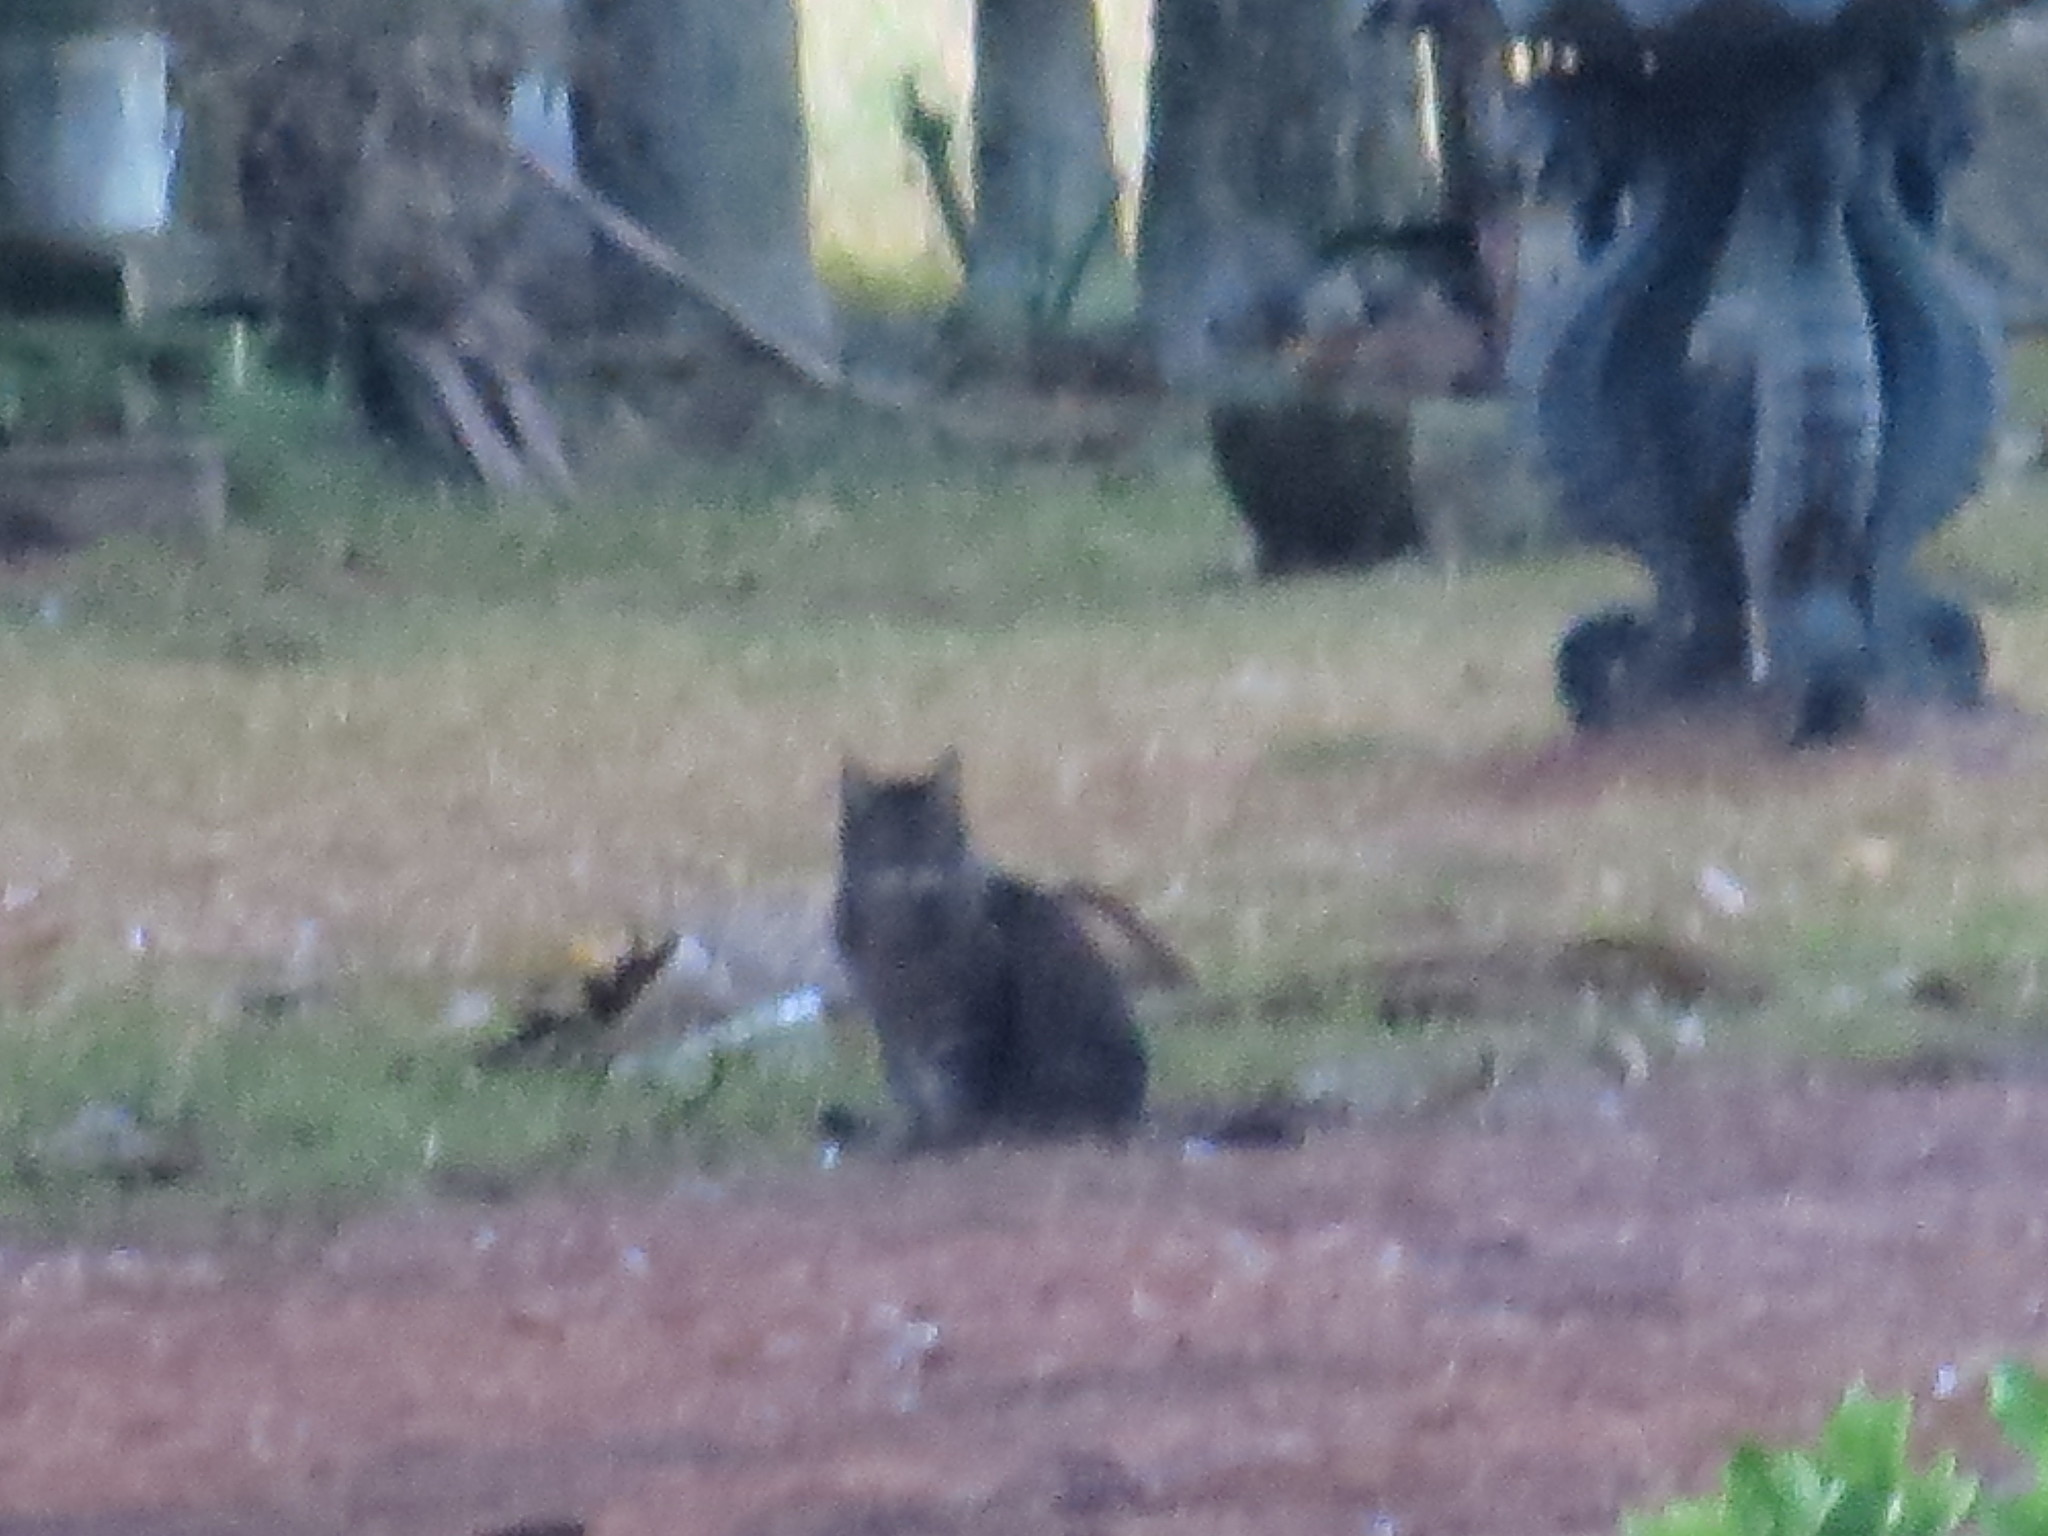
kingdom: Animalia
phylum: Chordata
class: Mammalia
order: Carnivora
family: Felidae
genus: Felis
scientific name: Felis catus
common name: Domestic cat
